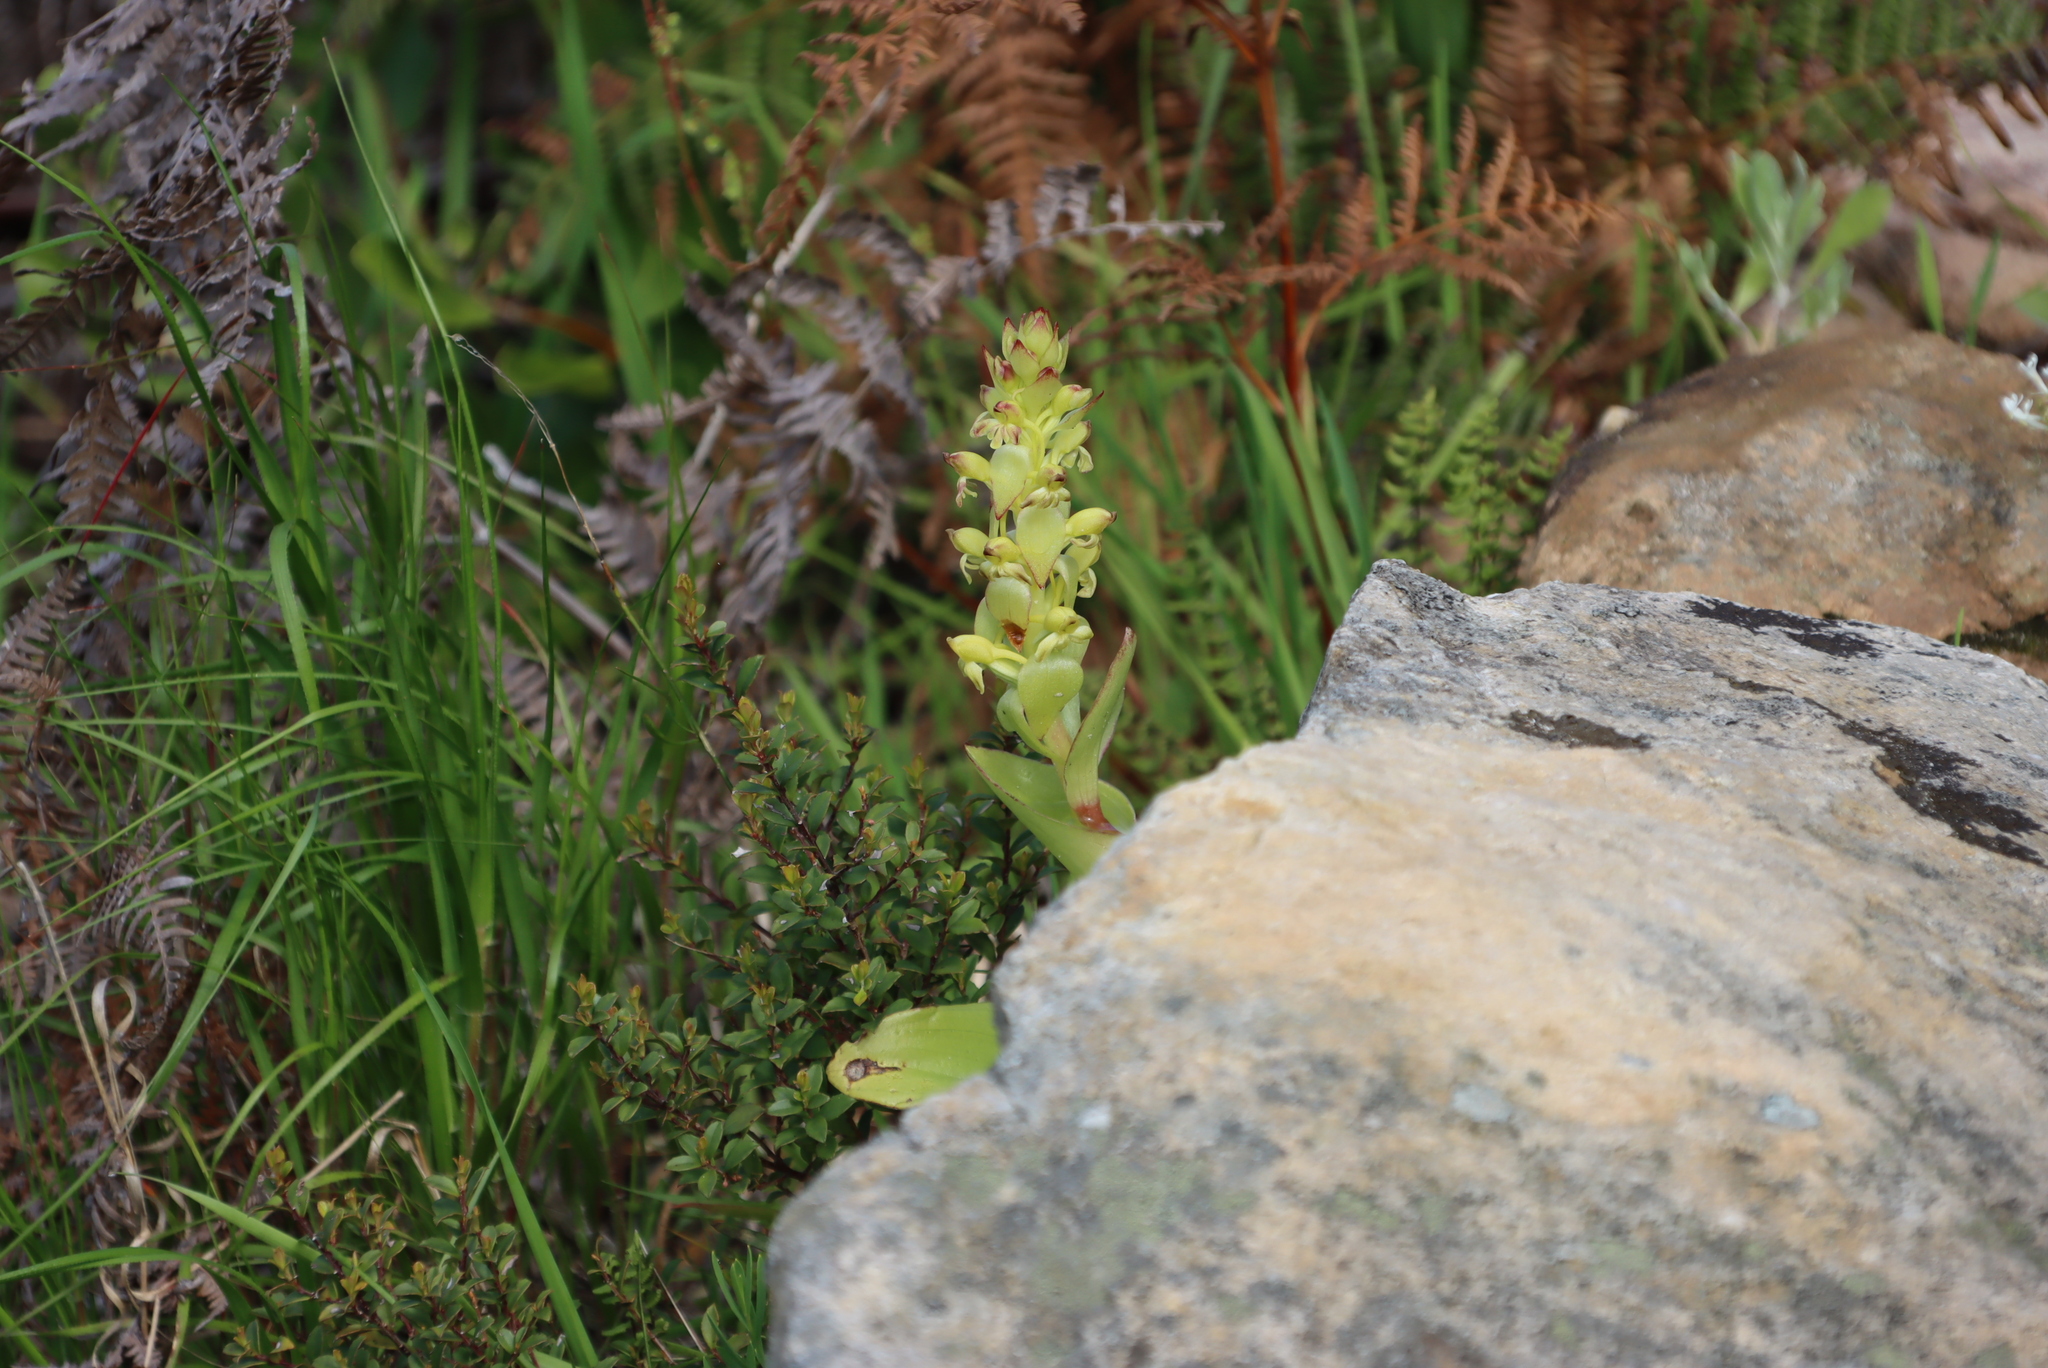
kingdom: Plantae
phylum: Tracheophyta
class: Liliopsida
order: Asparagales
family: Orchidaceae
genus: Satyrium
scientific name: Satyrium odorum
